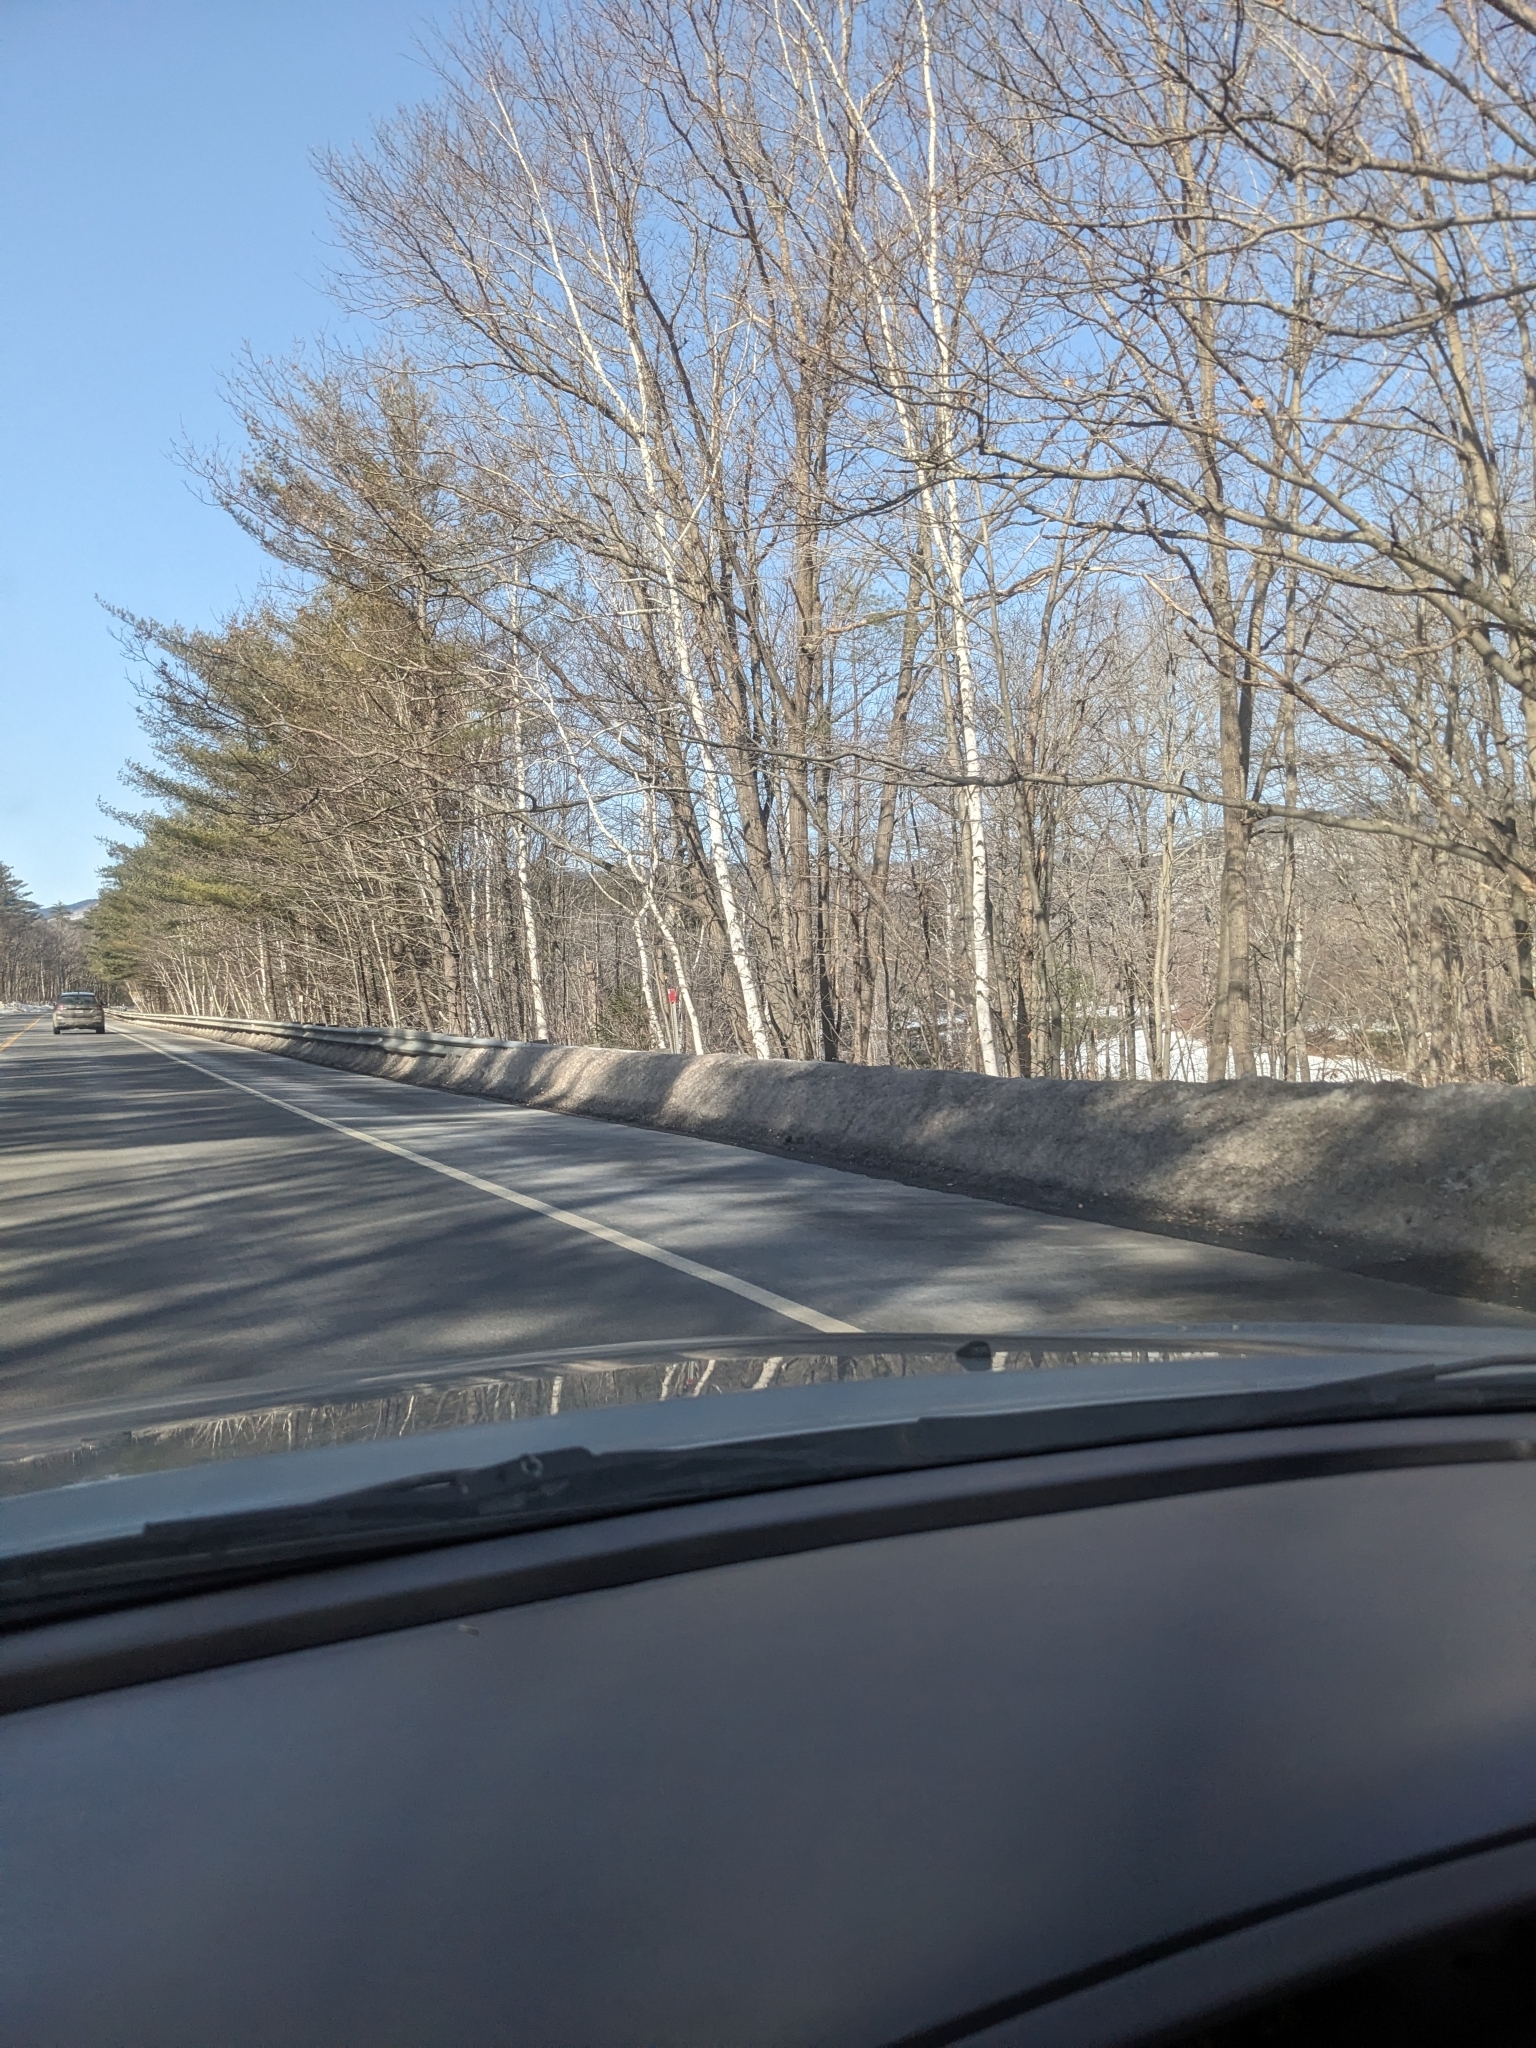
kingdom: Plantae
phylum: Tracheophyta
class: Magnoliopsida
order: Fagales
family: Betulaceae
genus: Betula
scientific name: Betula papyrifera
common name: Paper birch
